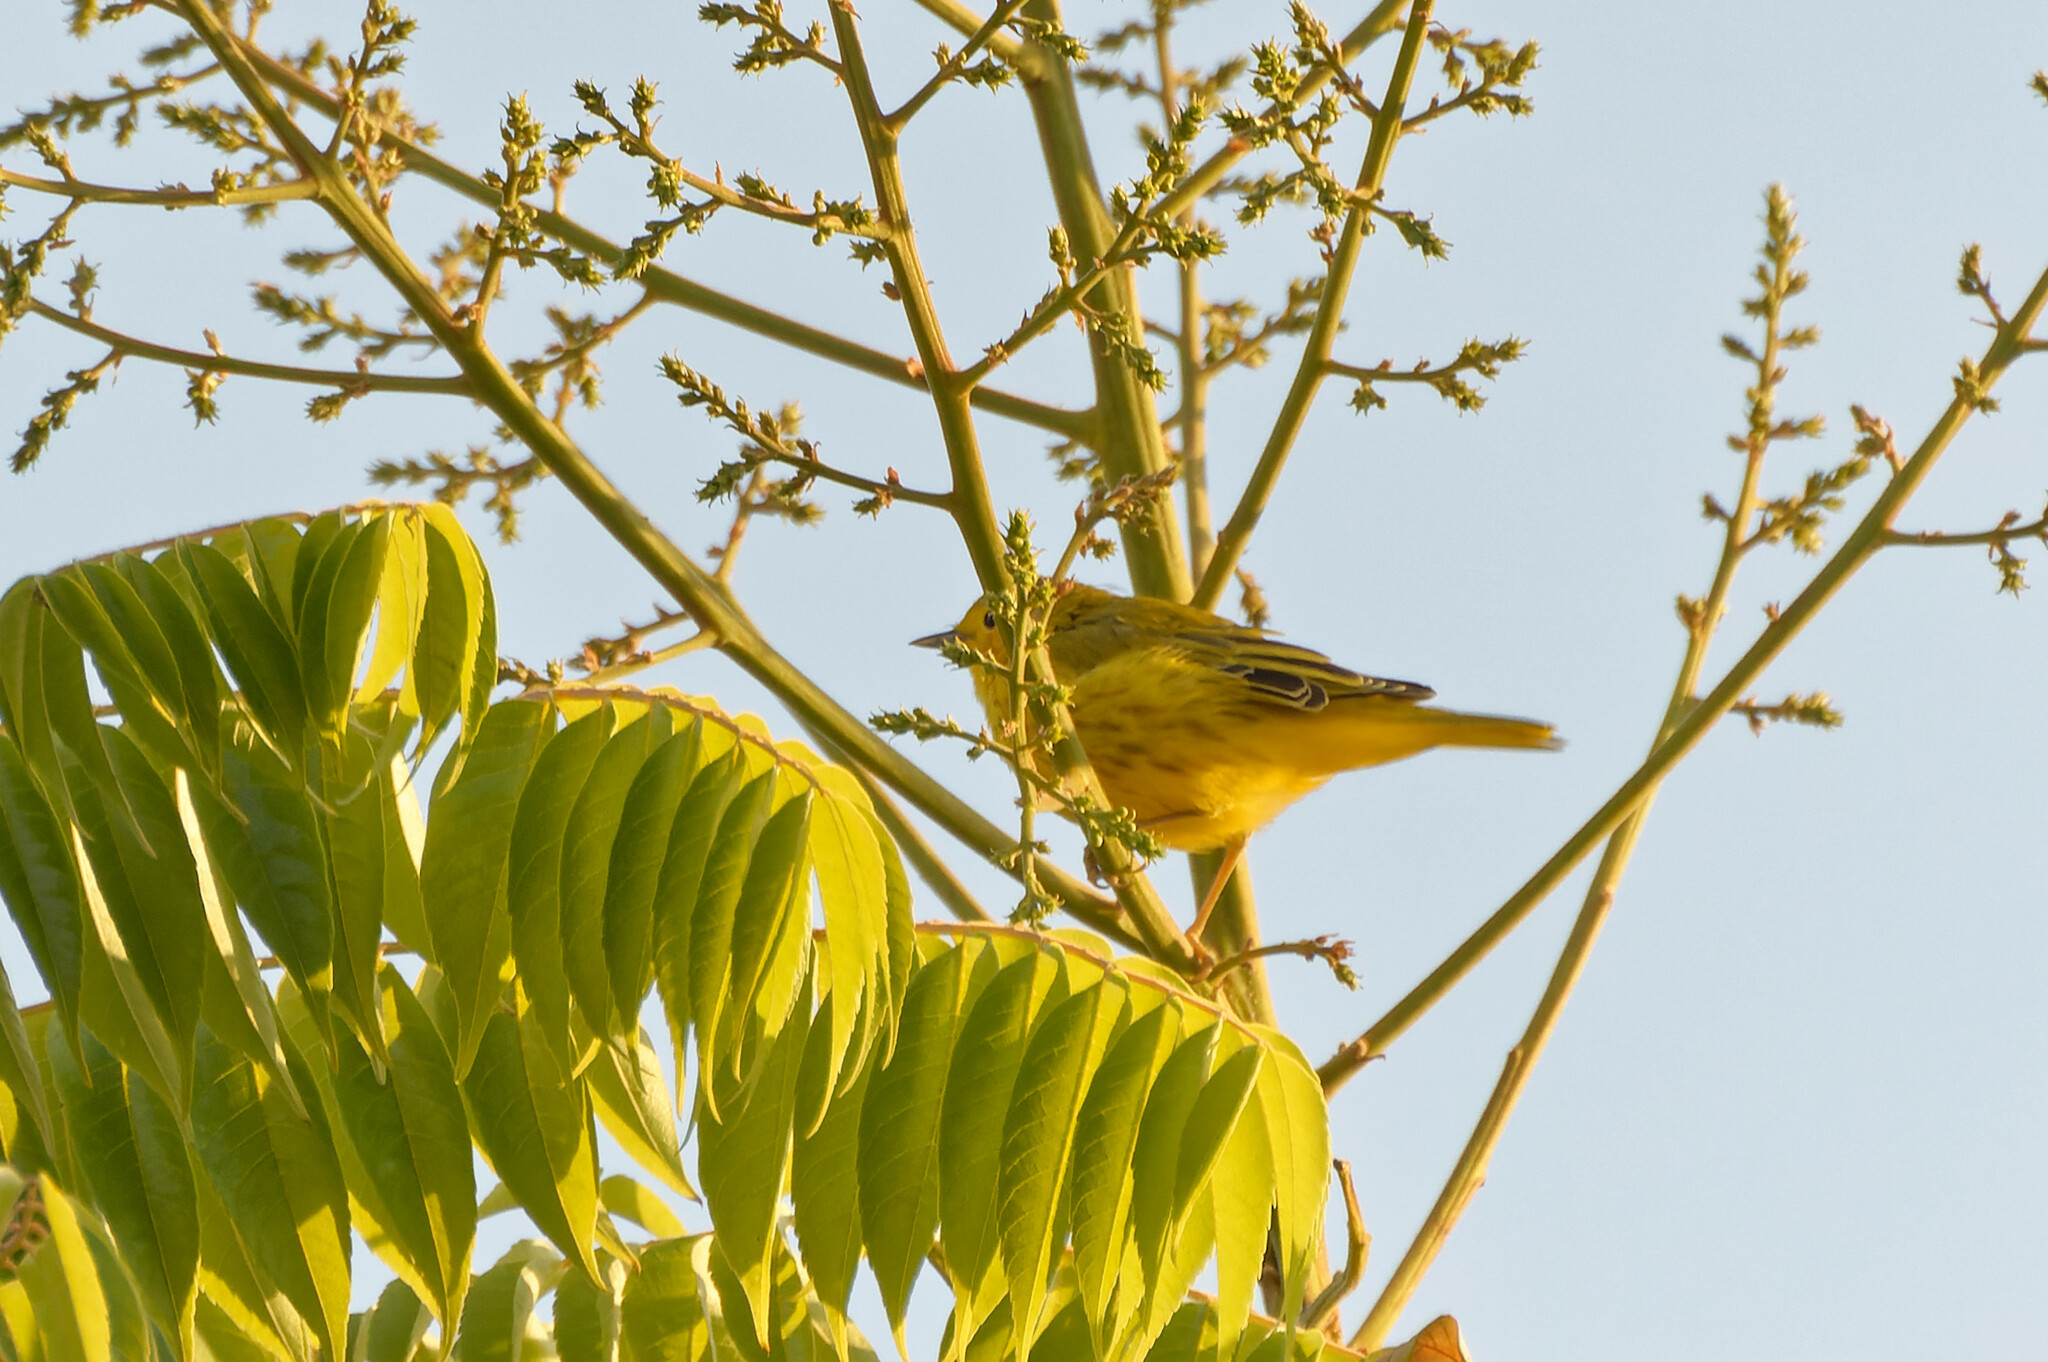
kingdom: Animalia
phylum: Chordata
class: Aves
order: Passeriformes
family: Parulidae
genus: Setophaga
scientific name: Setophaga petechia
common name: Yellow warbler
